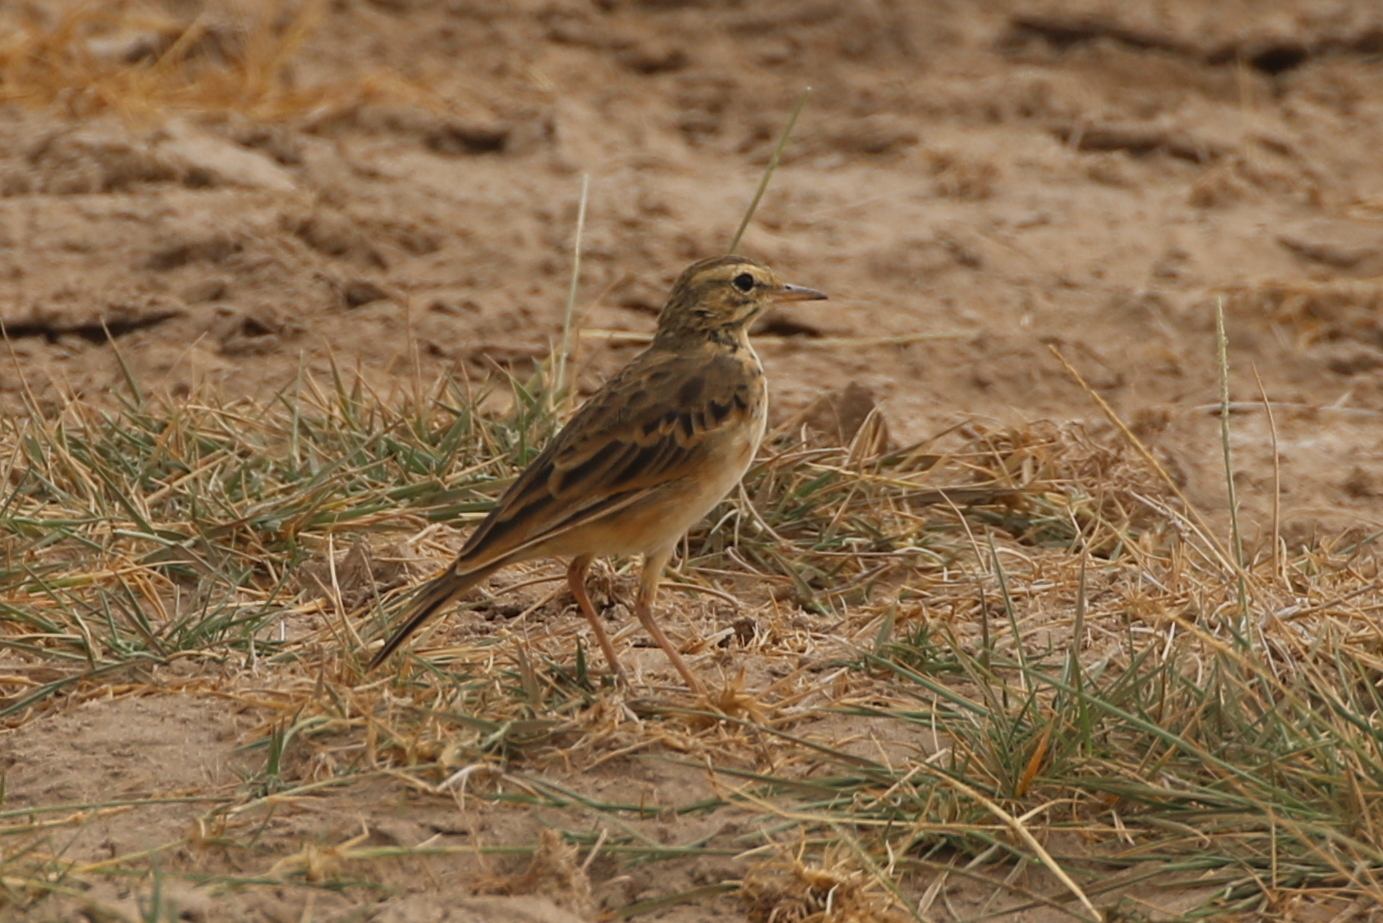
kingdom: Animalia
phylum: Chordata
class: Aves
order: Passeriformes
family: Motacillidae
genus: Anthus
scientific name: Anthus cinnamomeus
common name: African pipit
